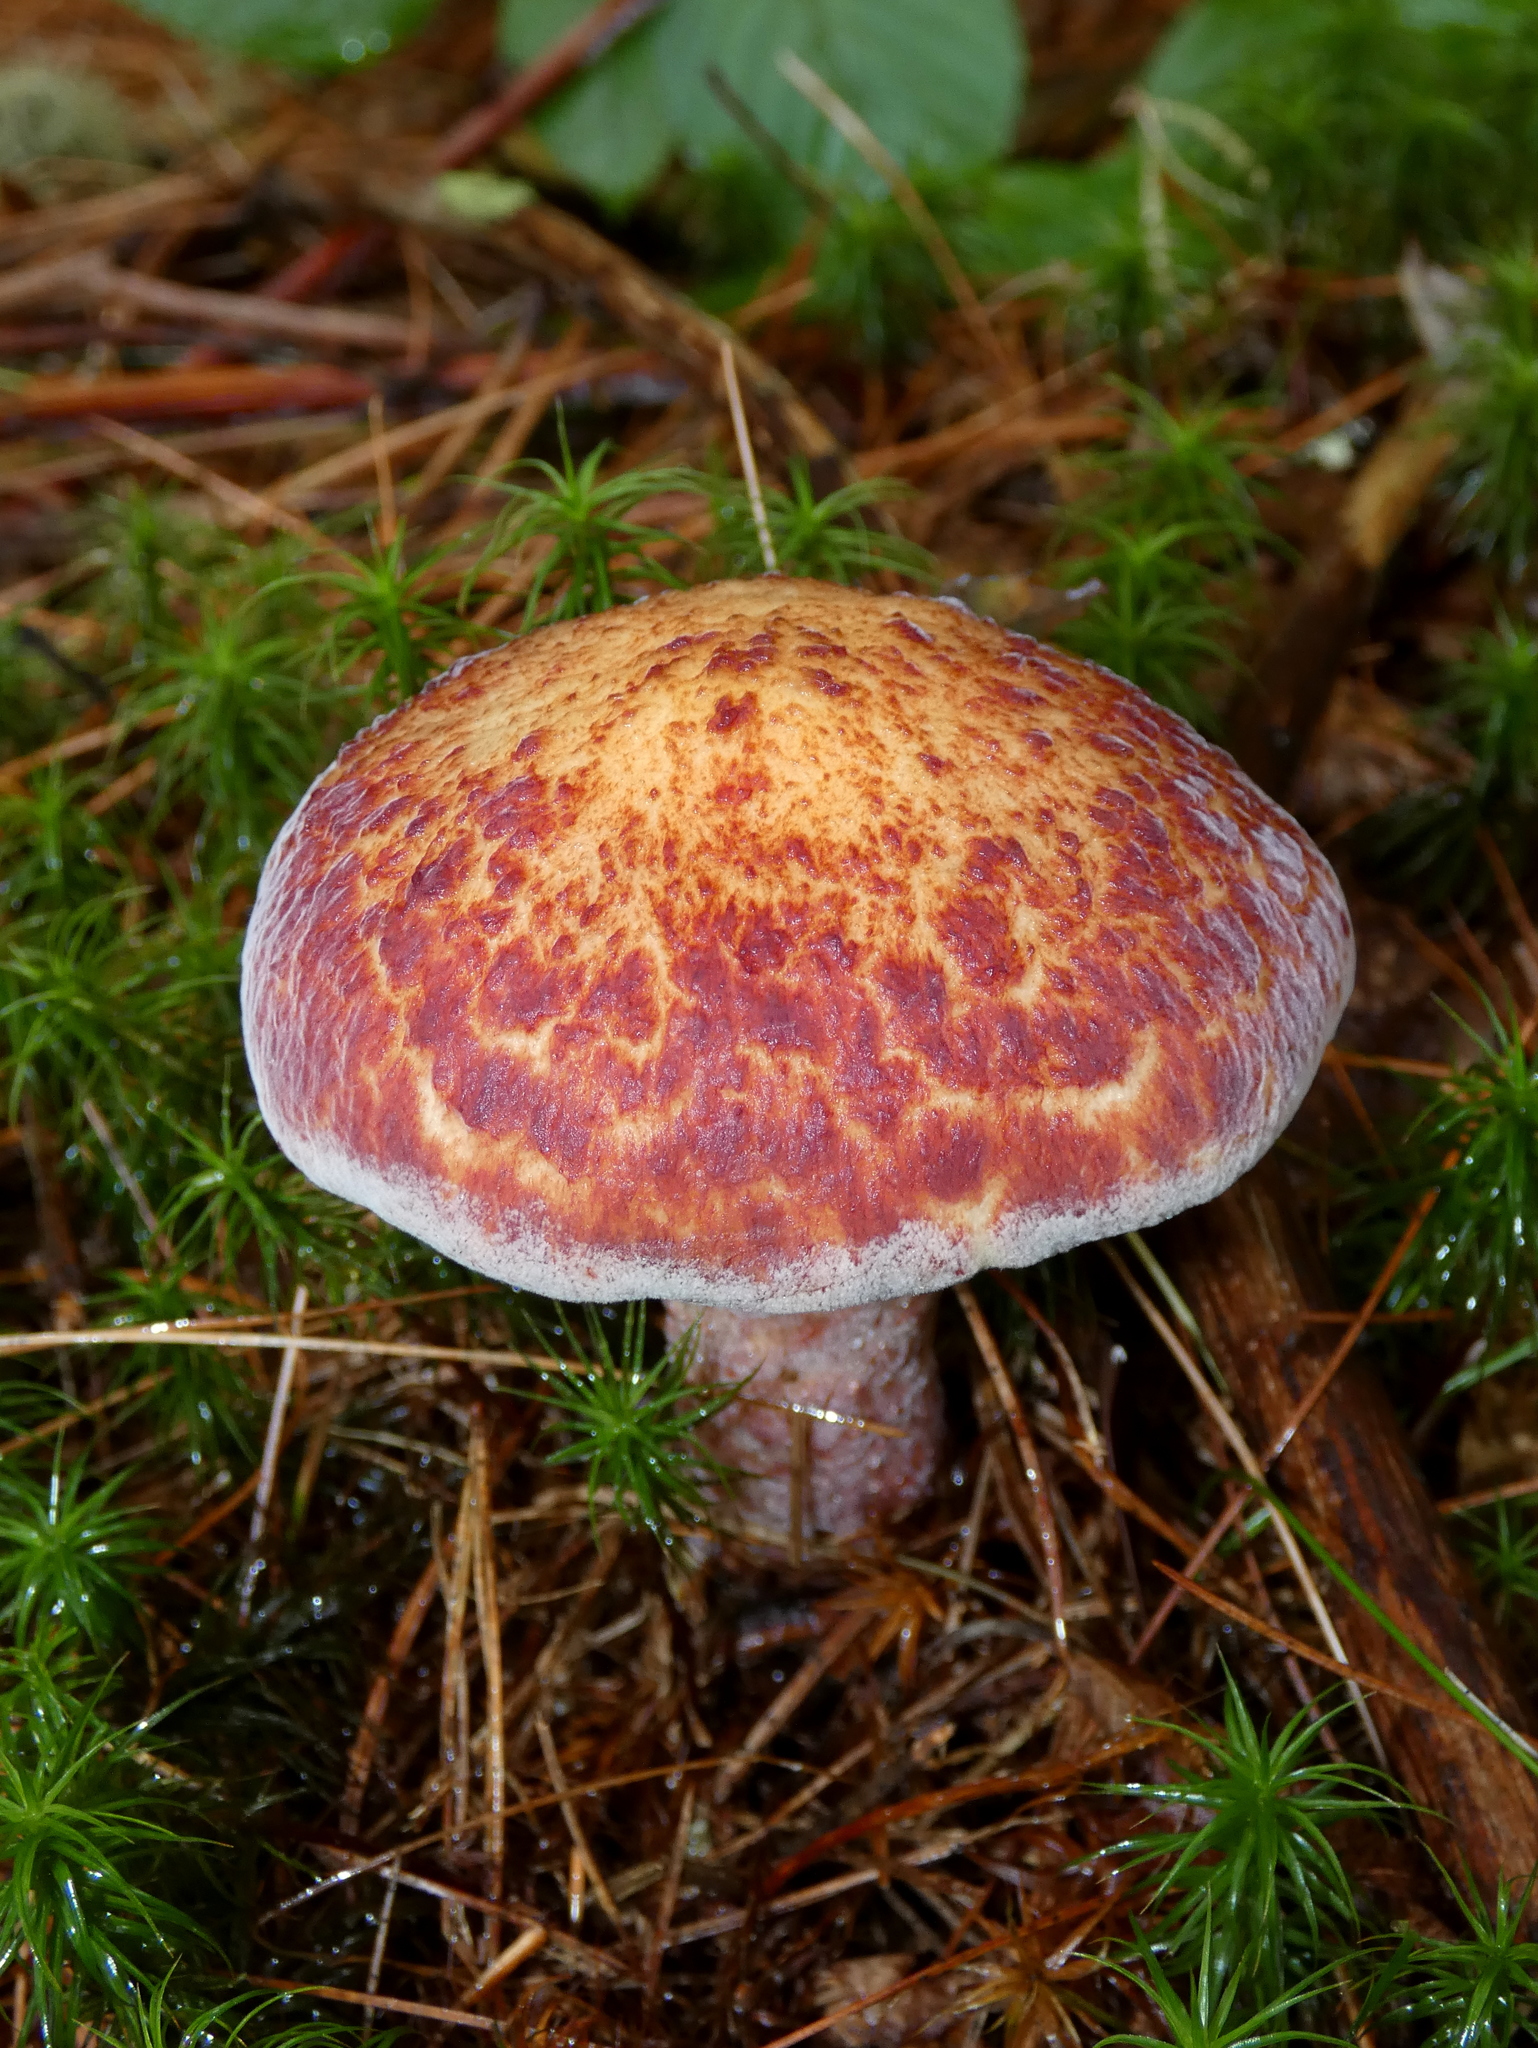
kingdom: Fungi
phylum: Basidiomycota
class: Agaricomycetes
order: Boletales
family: Suillaceae
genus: Suillus
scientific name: Suillus spraguei
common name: Painted suillus
